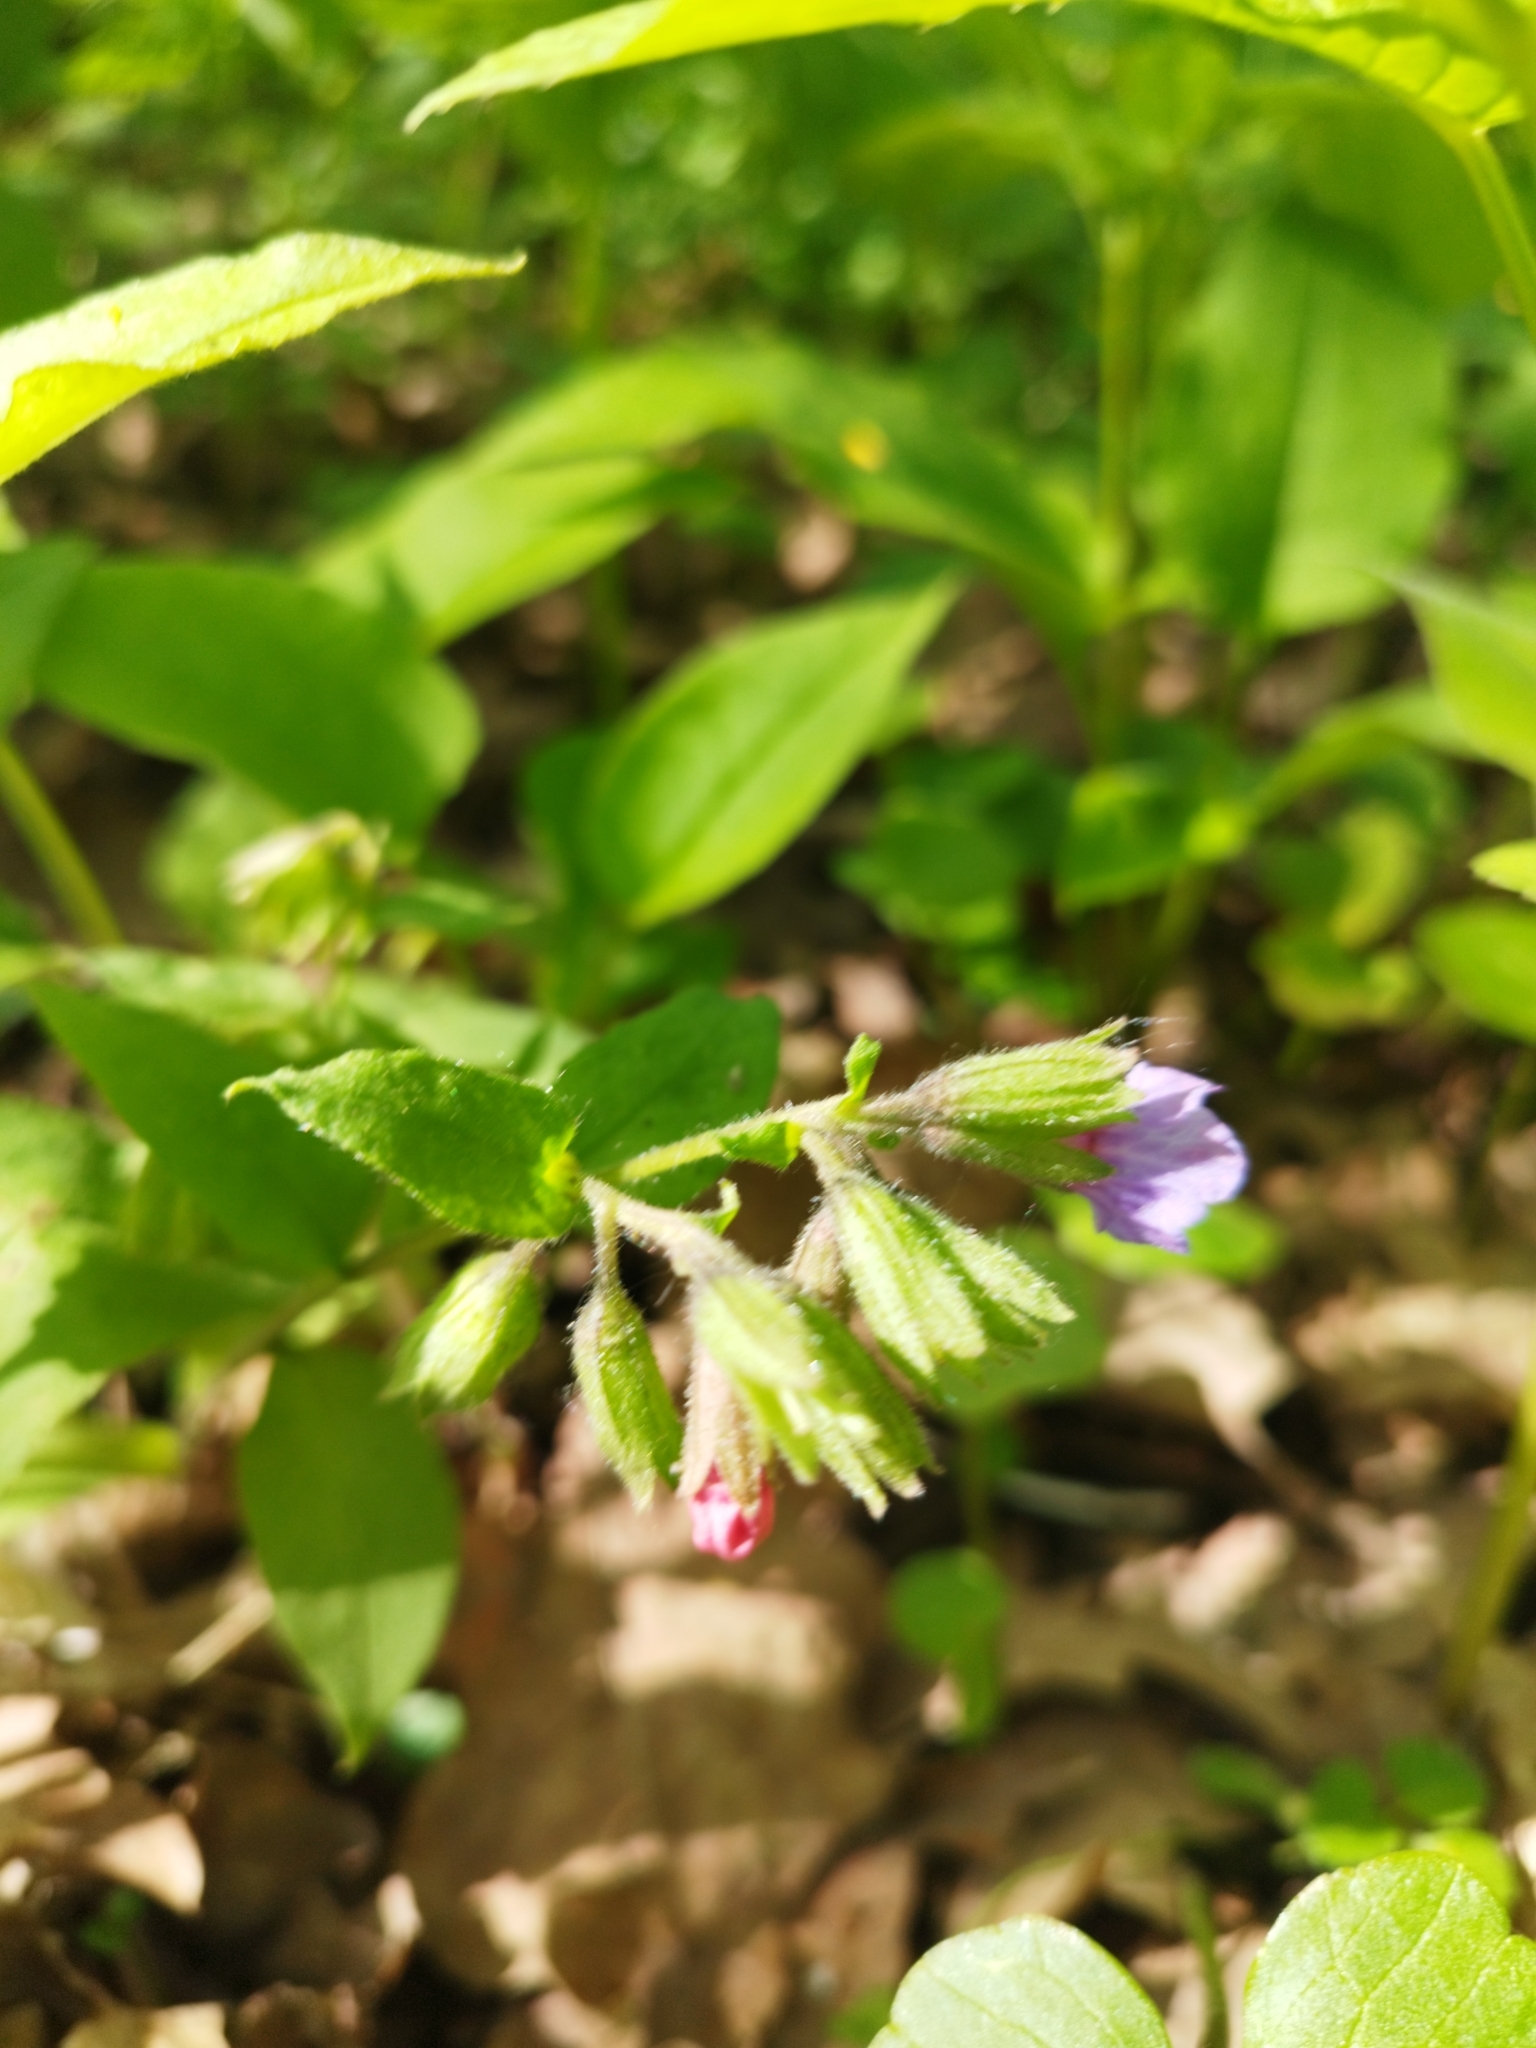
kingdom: Plantae
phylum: Tracheophyta
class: Magnoliopsida
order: Boraginales
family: Boraginaceae
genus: Pulmonaria
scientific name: Pulmonaria obscura
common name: Suffolk lungwort
